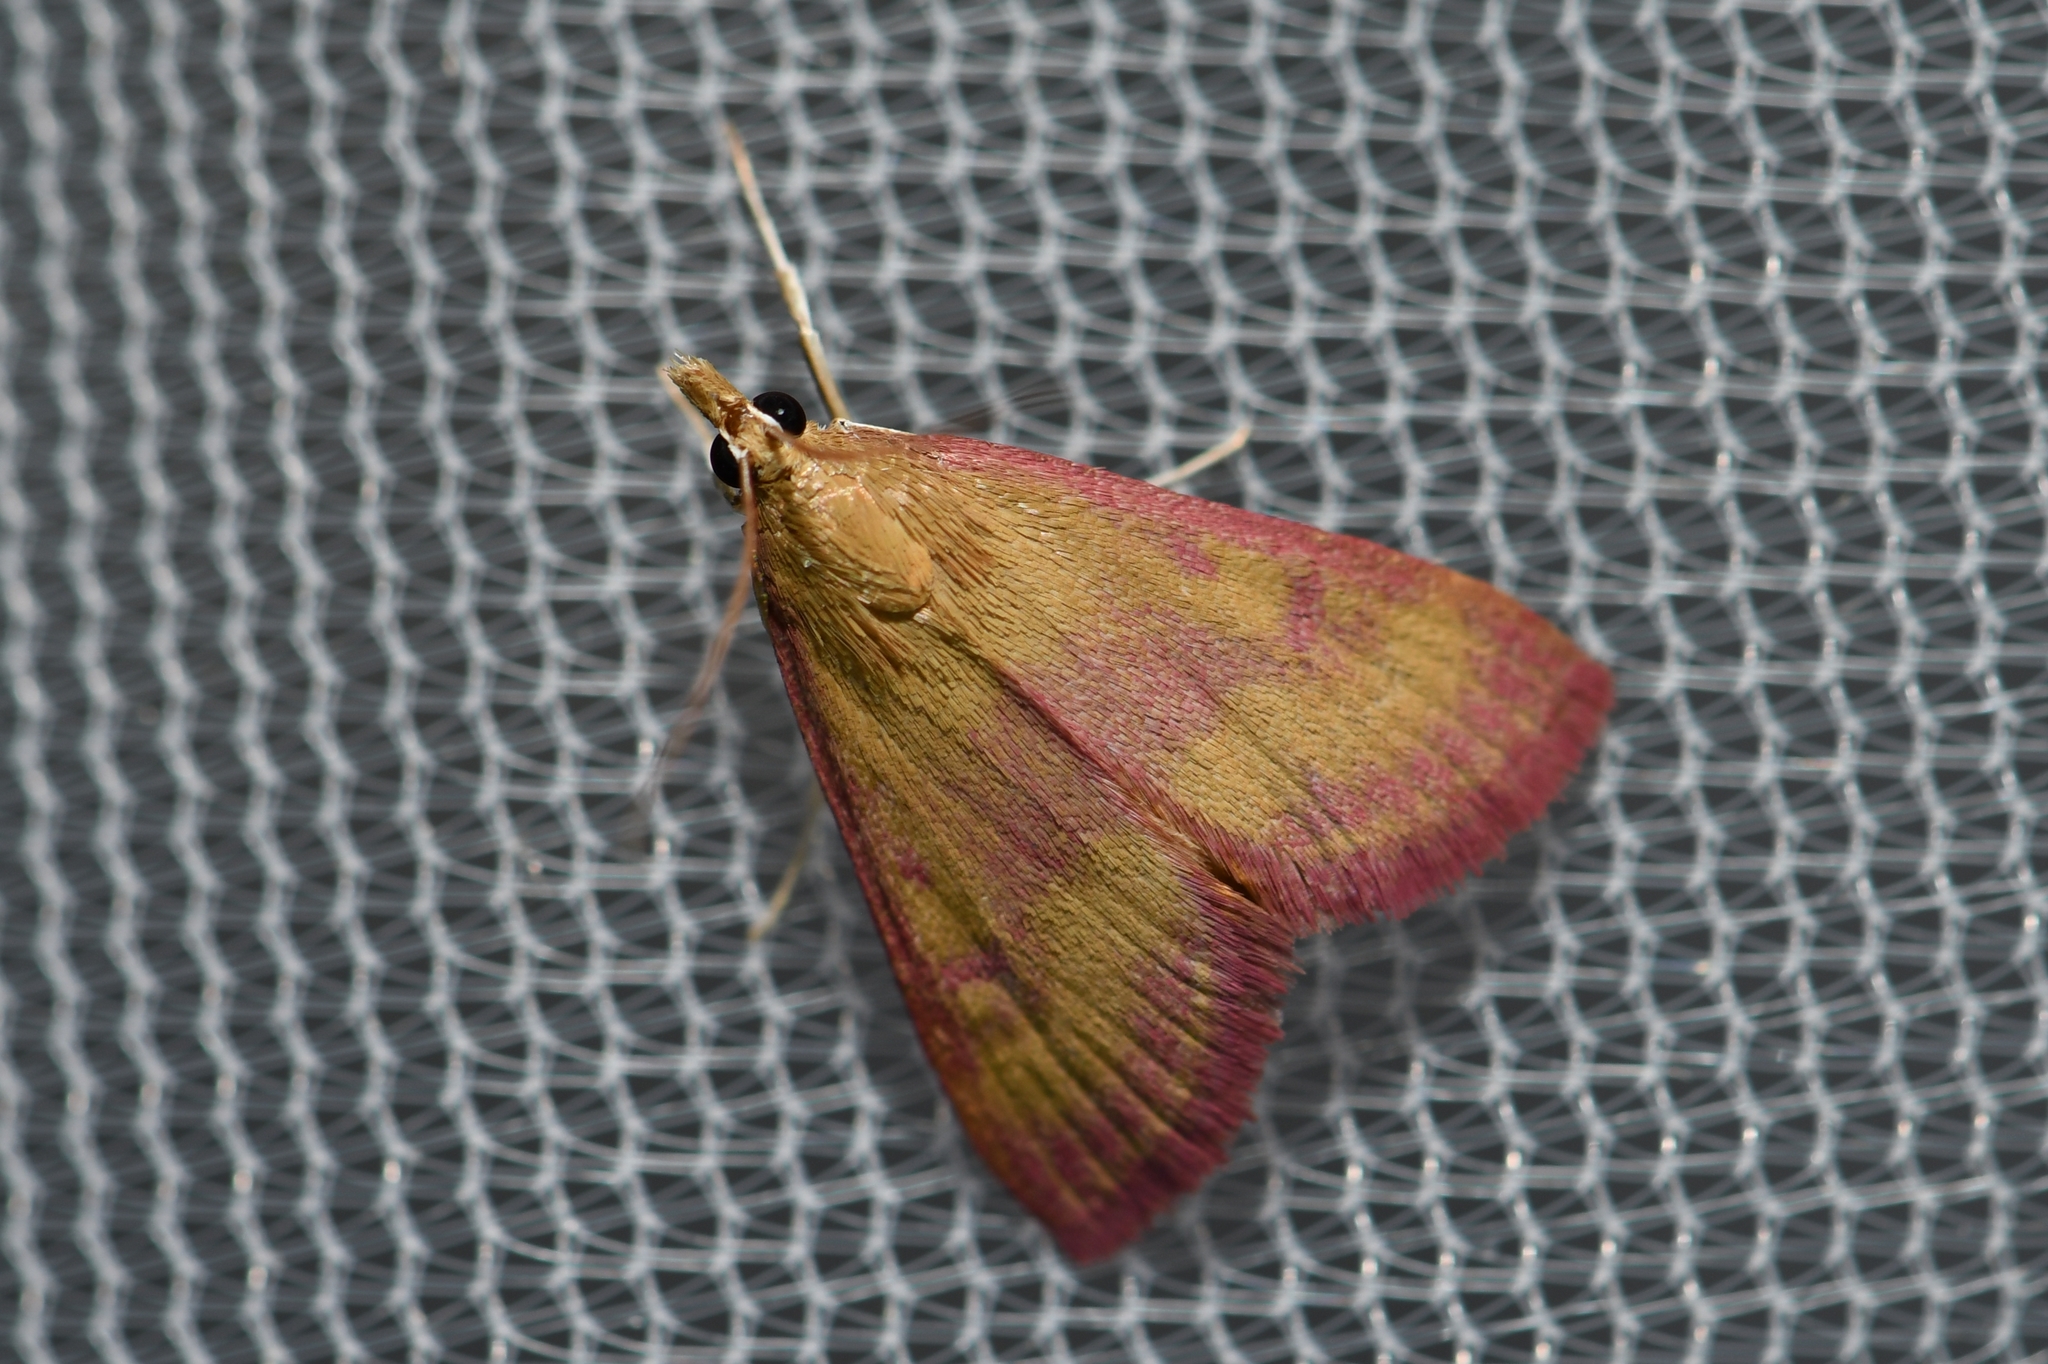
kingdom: Animalia
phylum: Arthropoda
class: Insecta
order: Lepidoptera
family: Crambidae
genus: Pyrausta
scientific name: Pyrausta laticlavia
